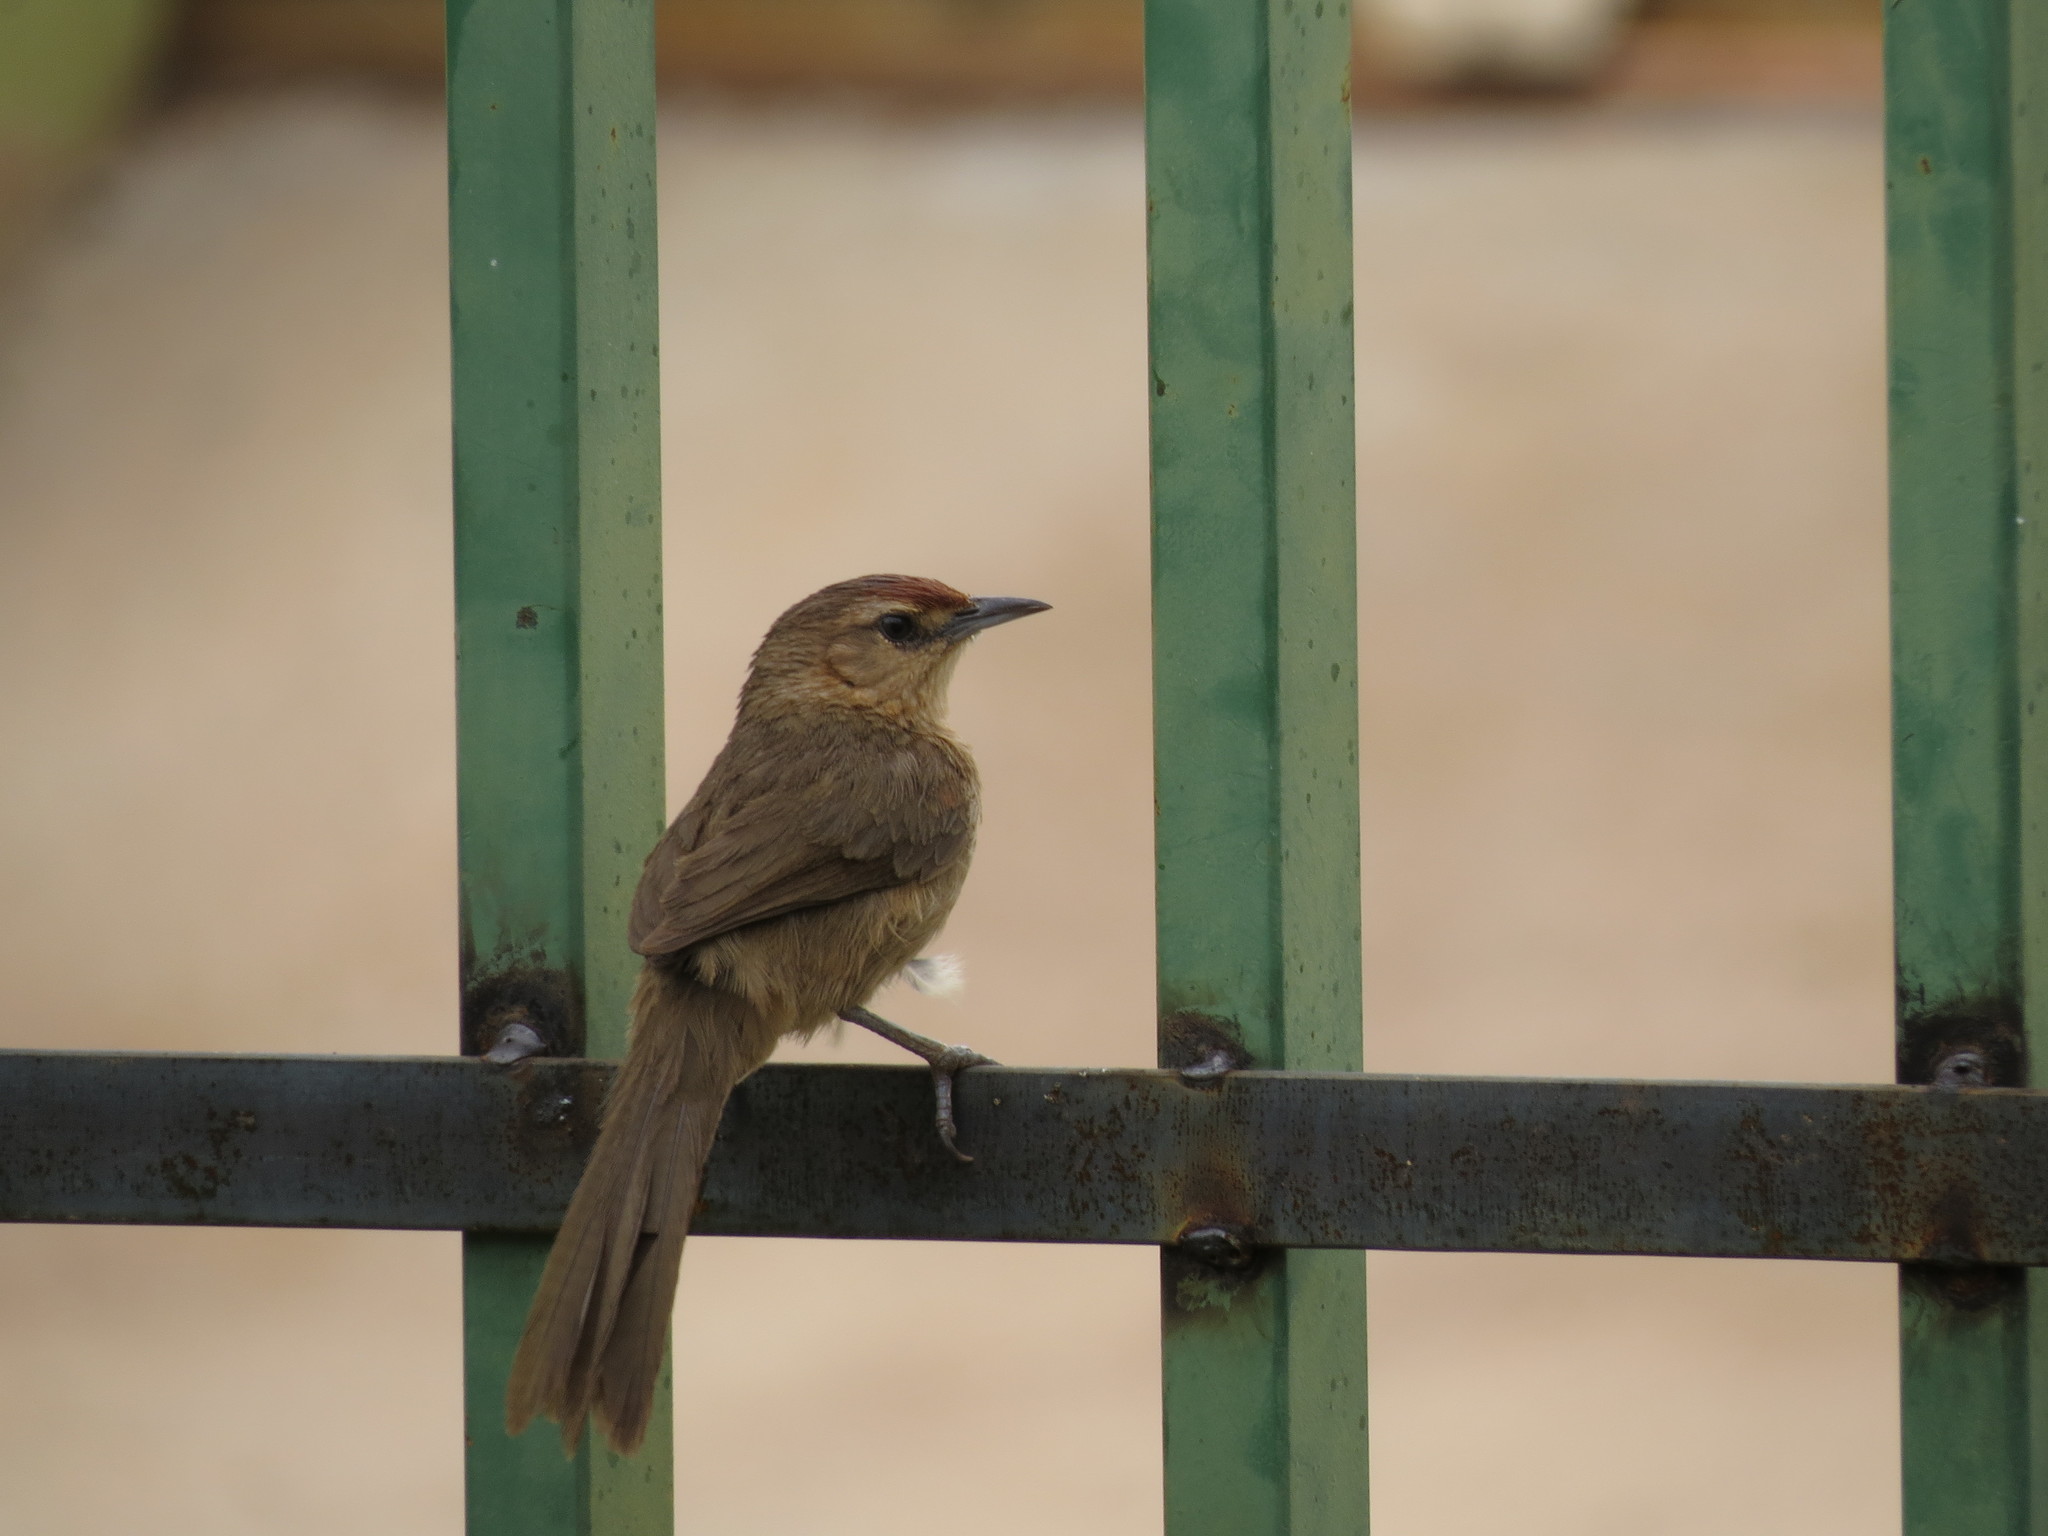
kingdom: Animalia
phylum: Chordata
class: Aves
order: Passeriformes
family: Furnariidae
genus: Phacellodomus
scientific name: Phacellodomus rufifrons
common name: Rufous-fronted thornbird
